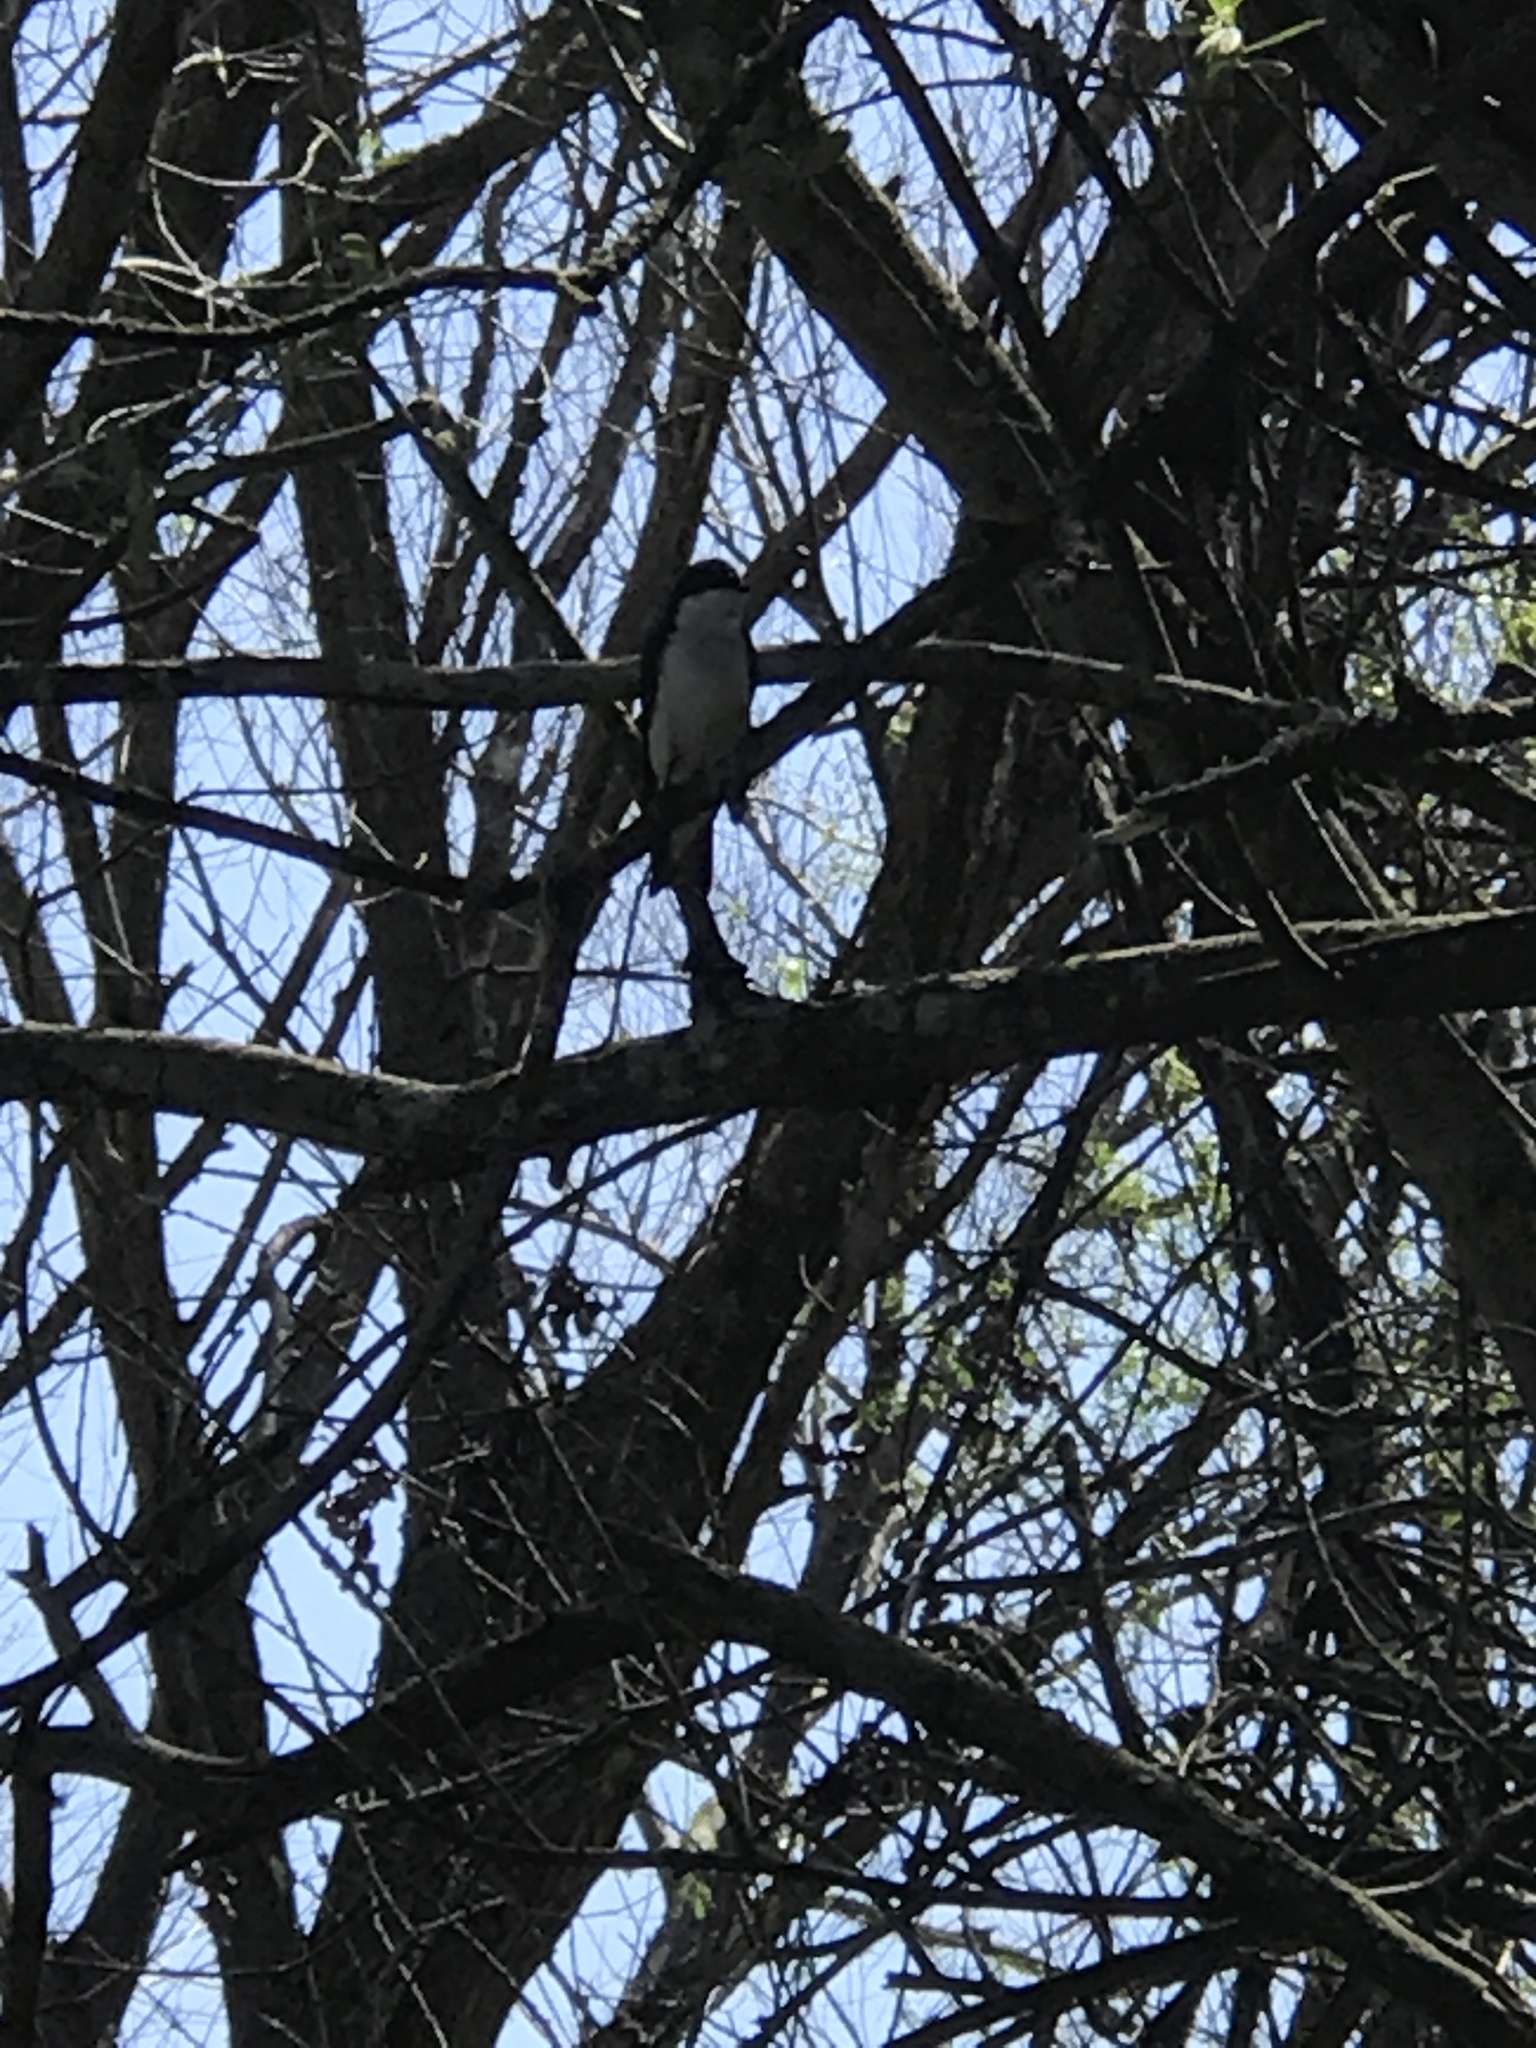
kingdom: Animalia
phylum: Chordata
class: Aves
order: Passeriformes
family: Hirundinidae
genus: Tachycineta
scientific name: Tachycineta bicolor
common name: Tree swallow
